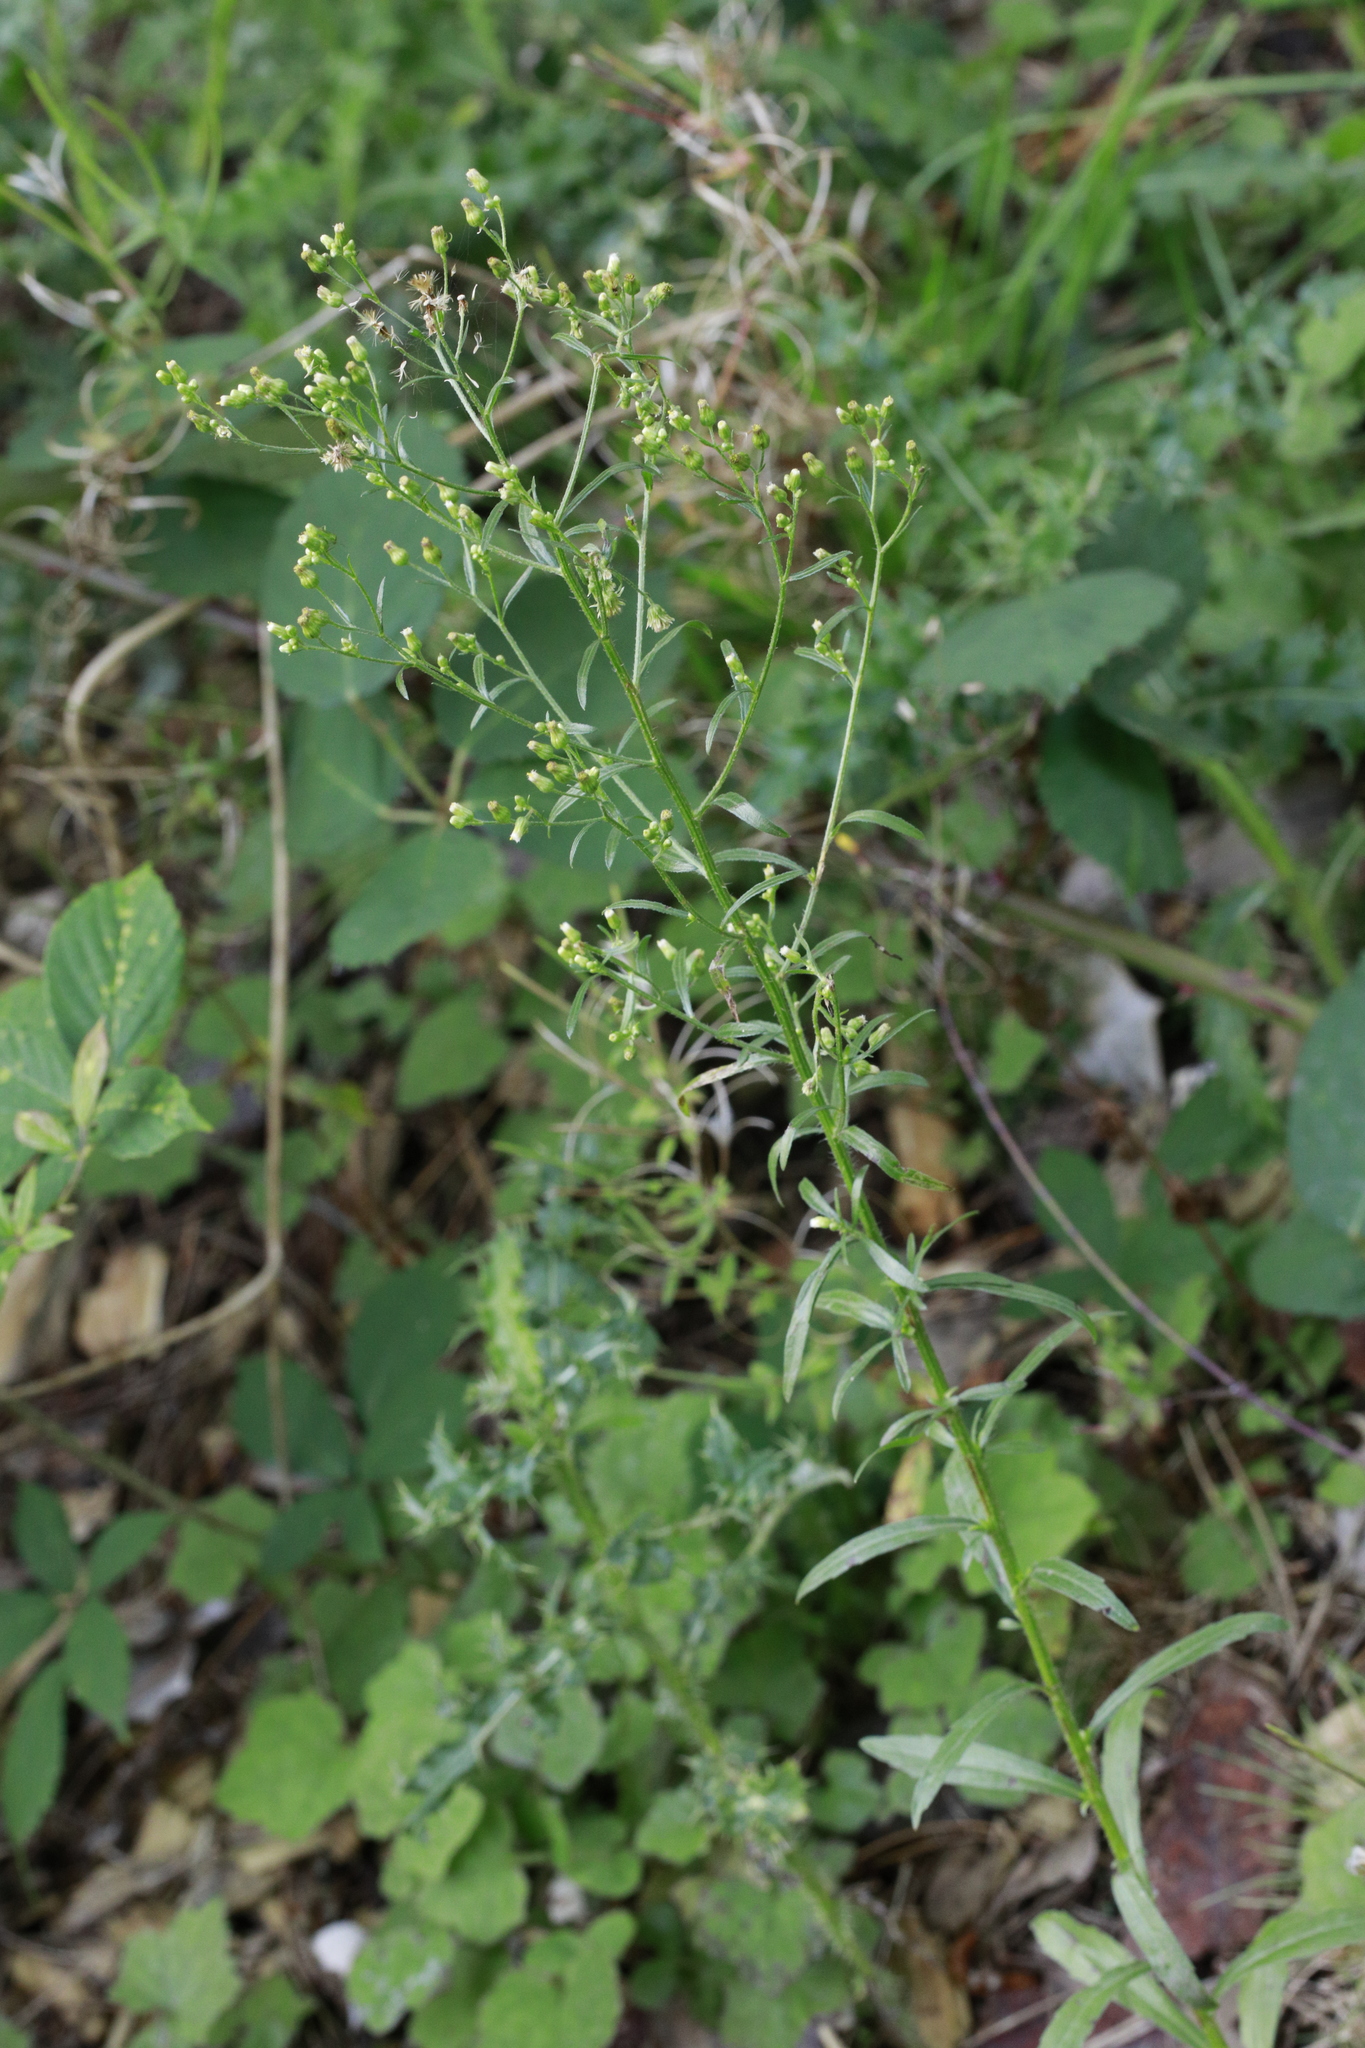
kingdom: Plantae
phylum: Tracheophyta
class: Magnoliopsida
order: Asterales
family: Asteraceae
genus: Erigeron
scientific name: Erigeron canadensis
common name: Canadian fleabane
